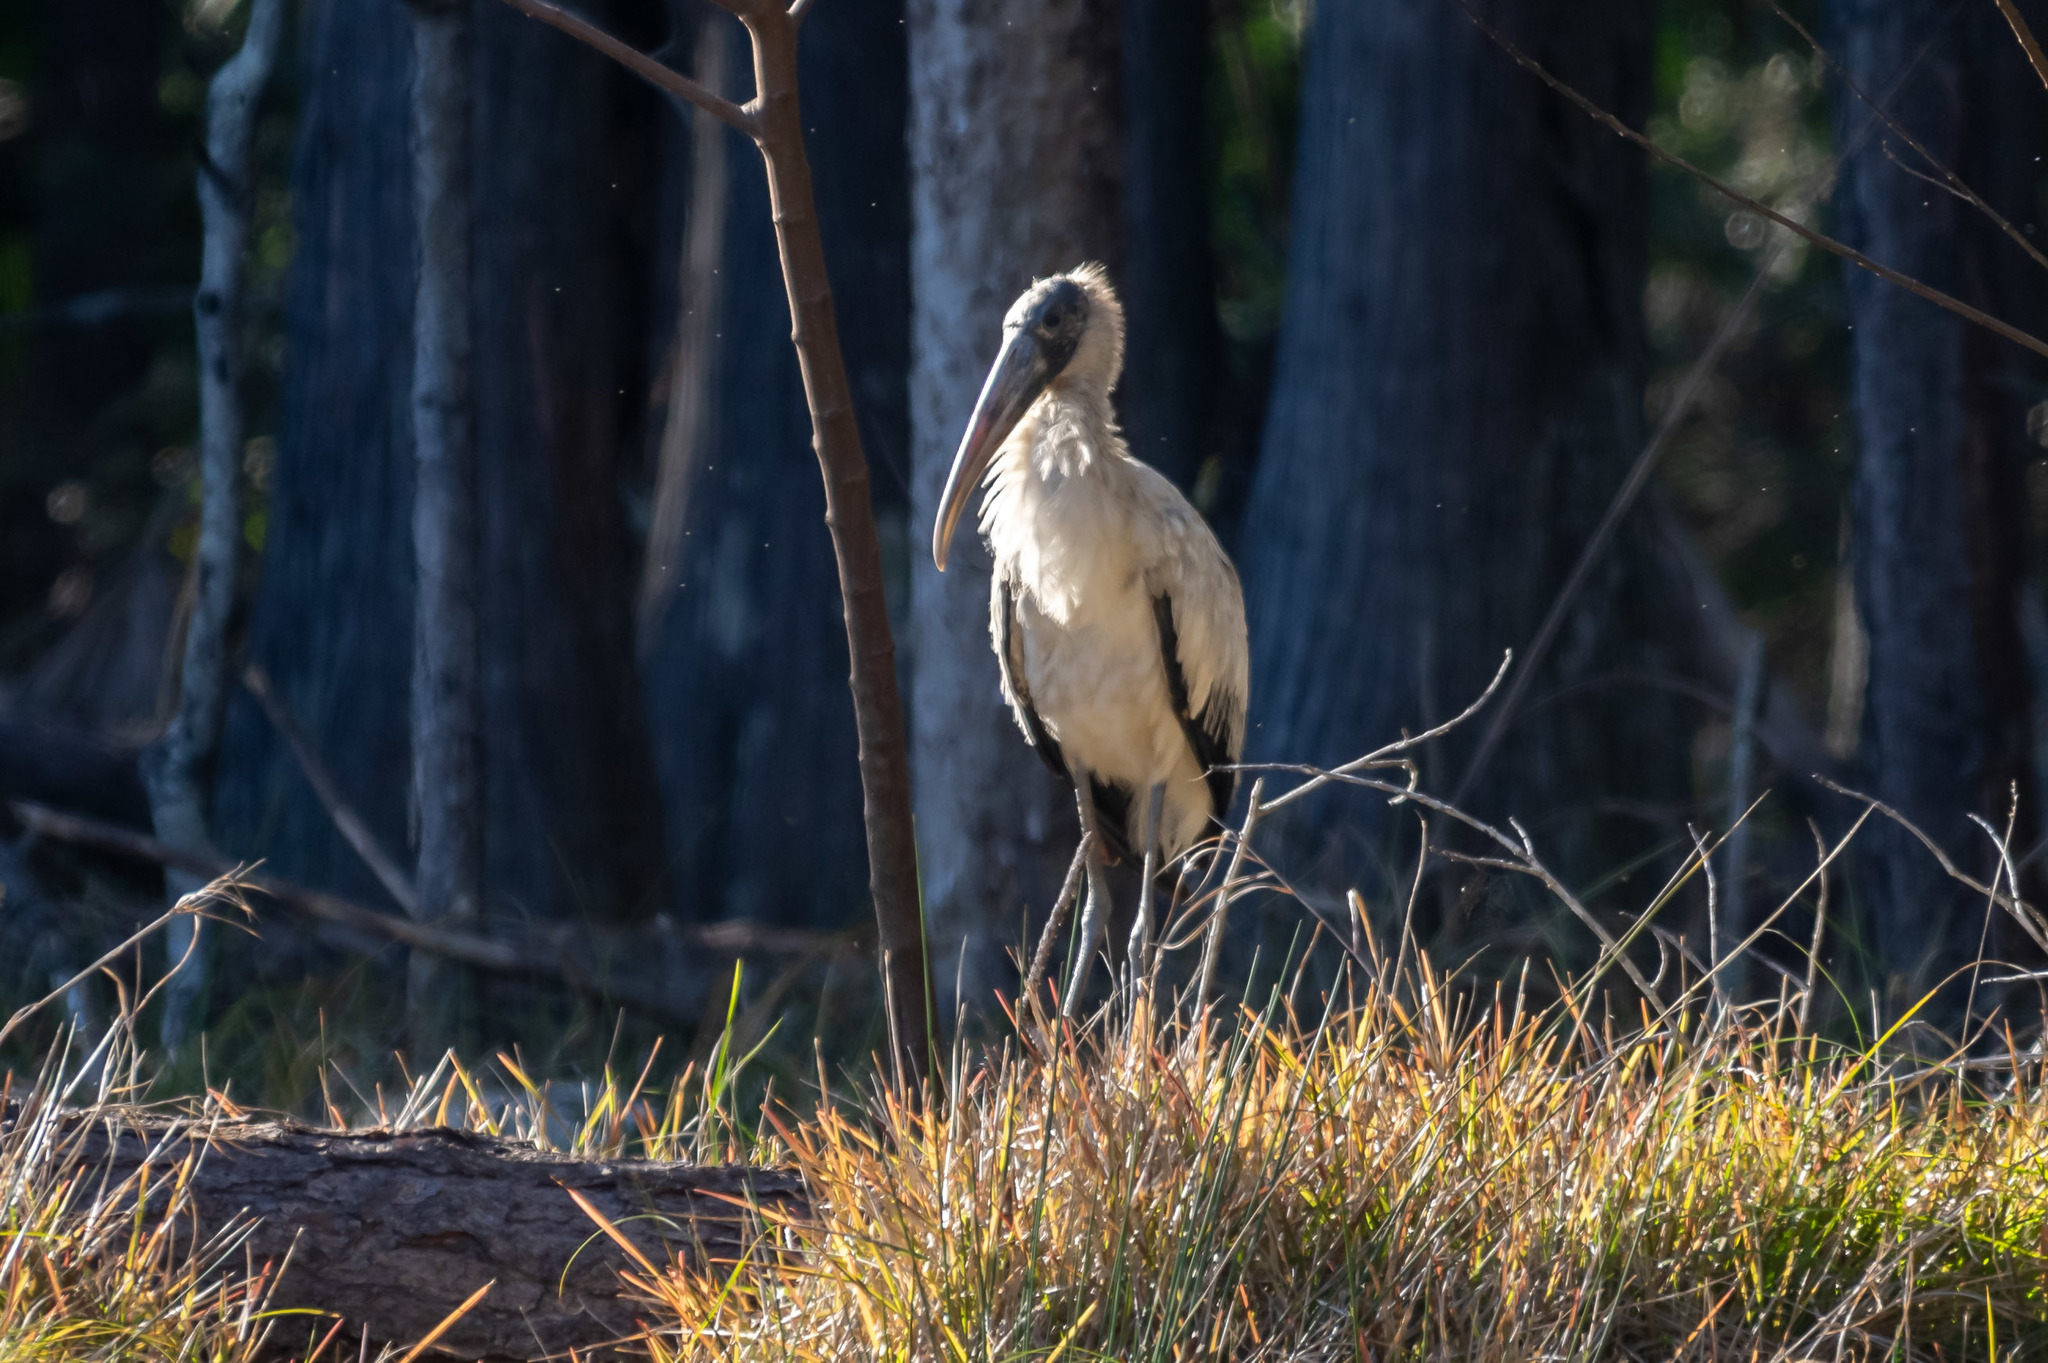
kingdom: Animalia
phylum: Chordata
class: Aves
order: Ciconiiformes
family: Ciconiidae
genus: Mycteria
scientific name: Mycteria americana
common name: Wood stork
